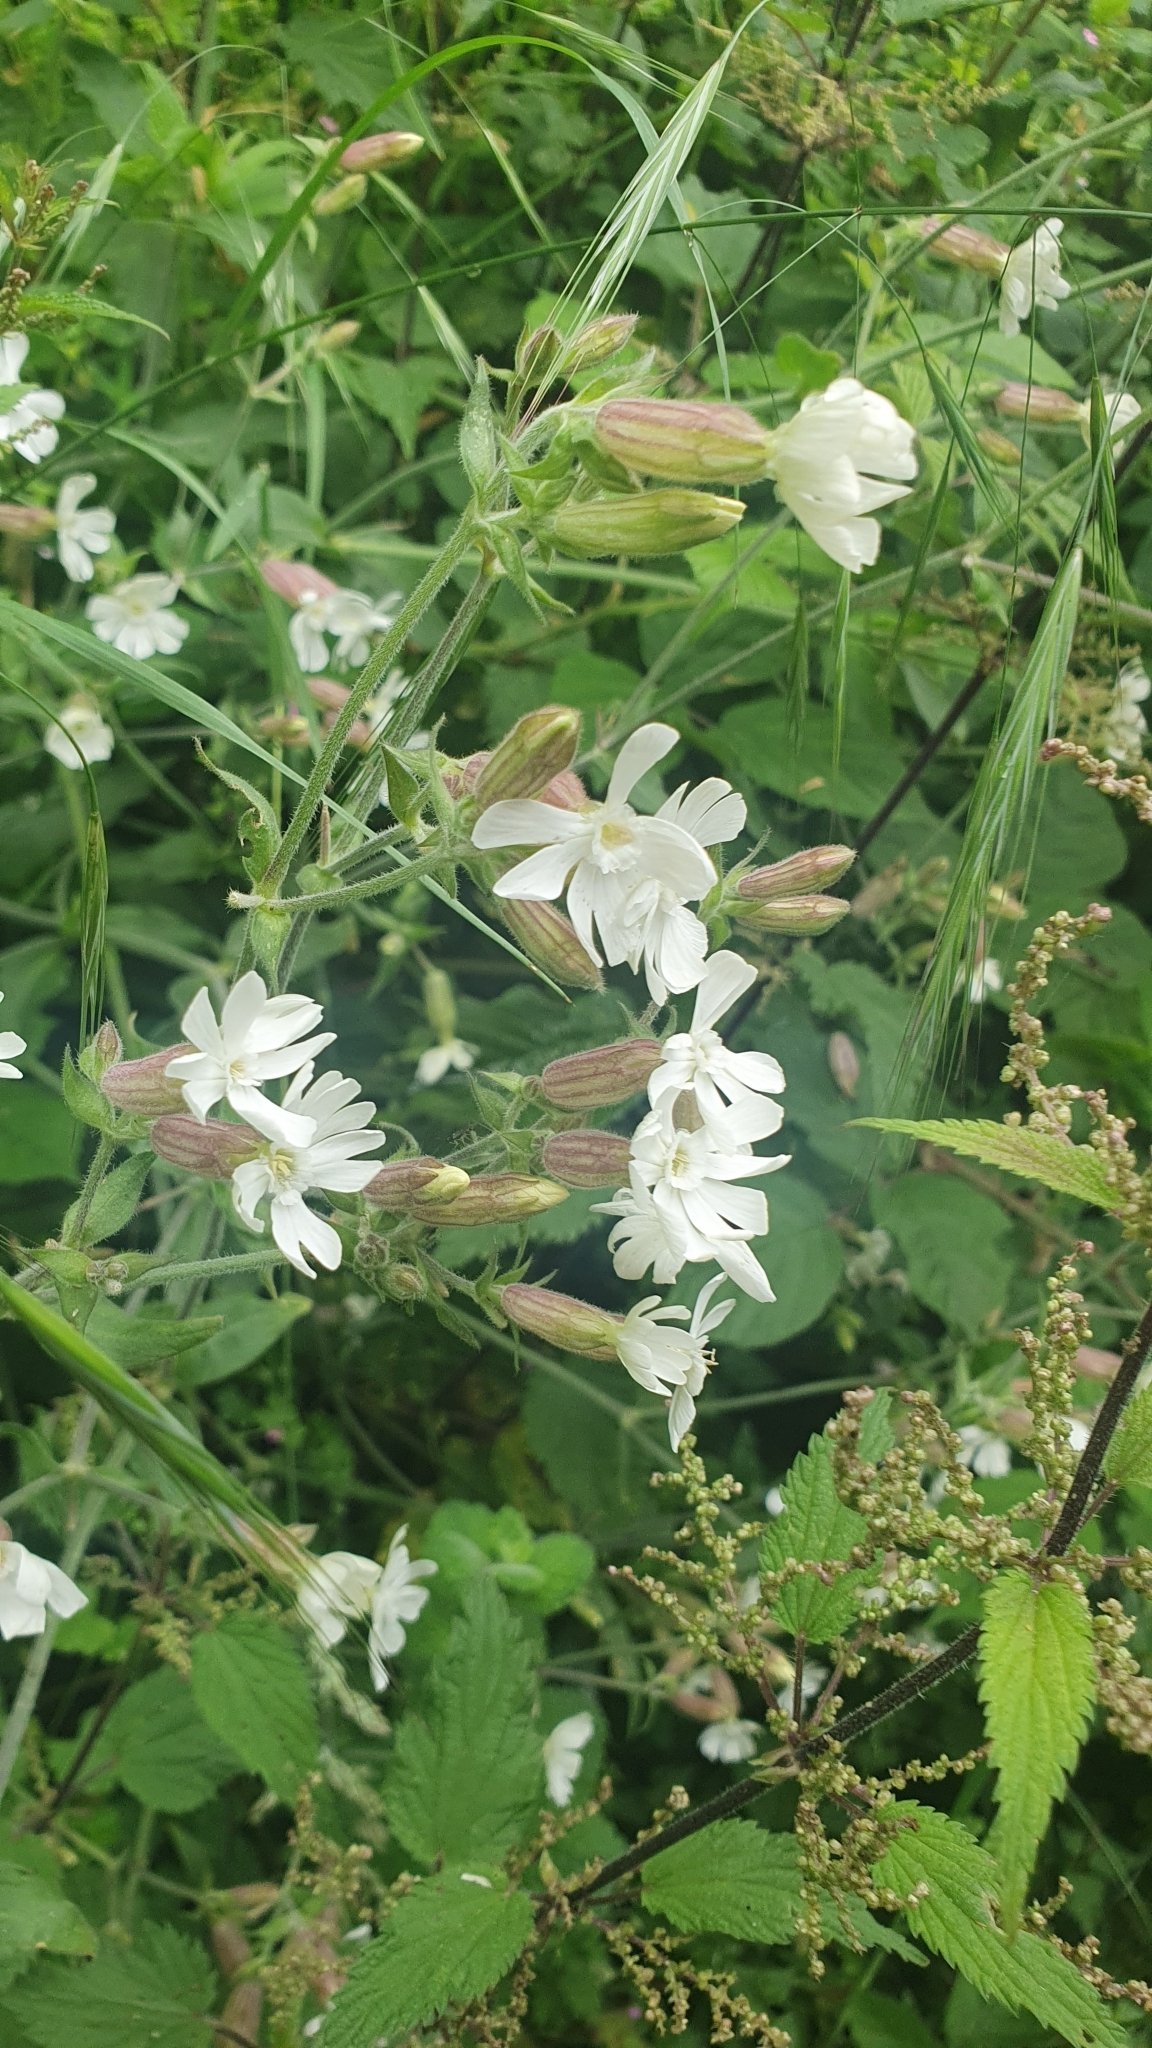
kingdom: Plantae
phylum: Tracheophyta
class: Magnoliopsida
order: Caryophyllales
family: Caryophyllaceae
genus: Silene
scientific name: Silene latifolia
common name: White campion
